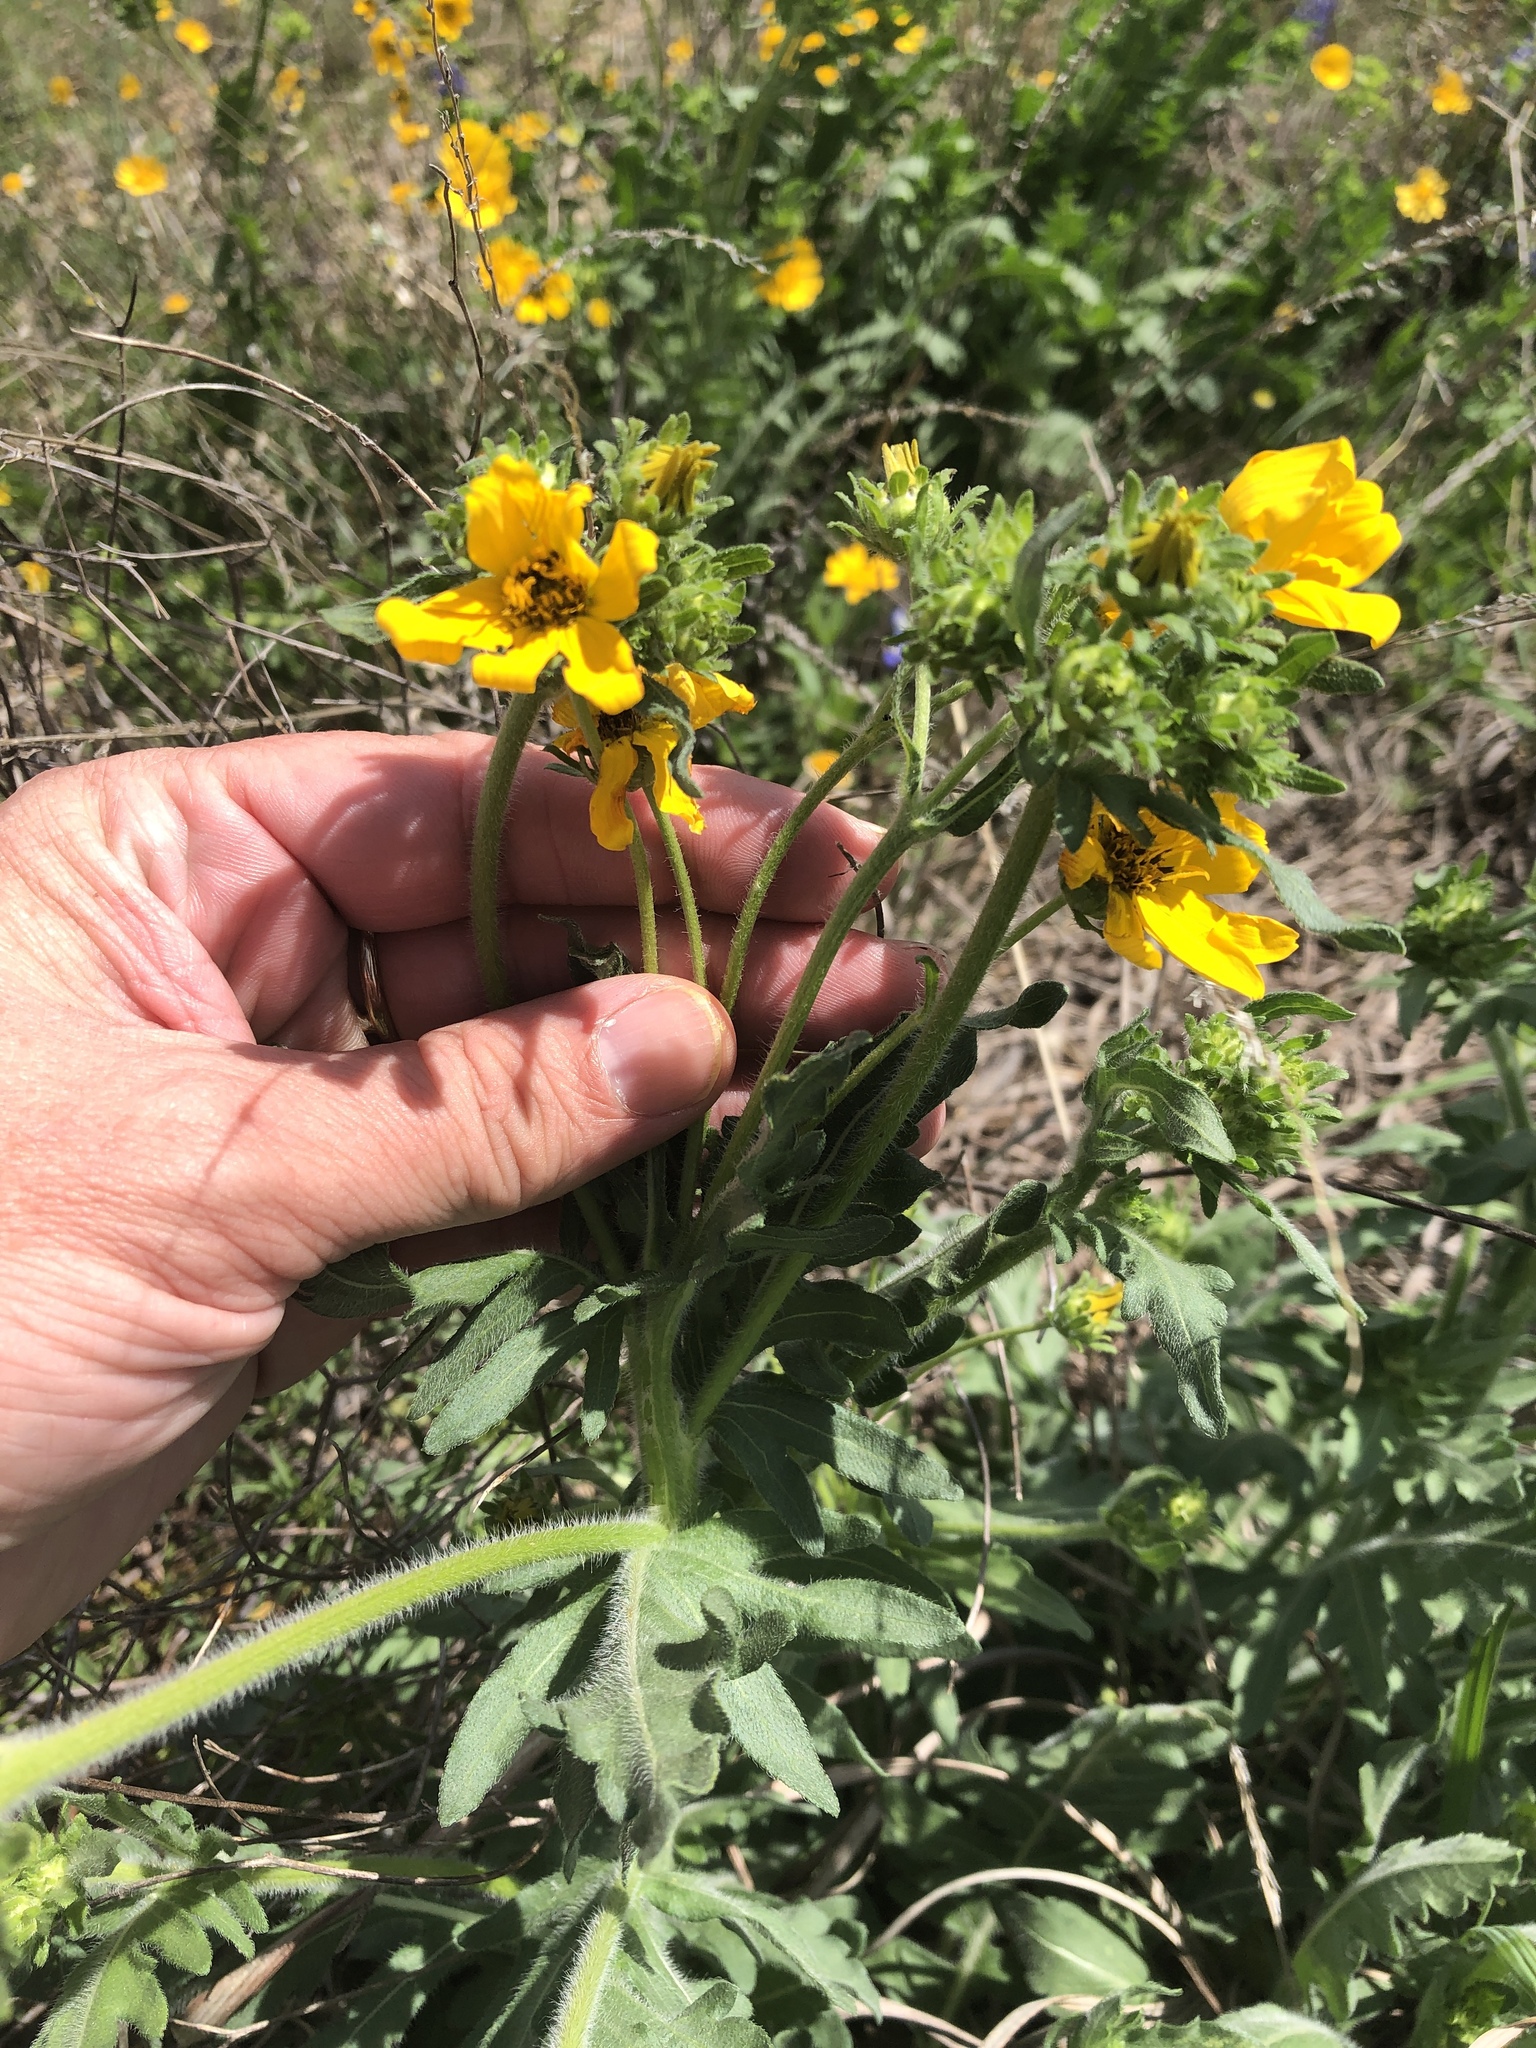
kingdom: Plantae
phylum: Tracheophyta
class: Magnoliopsida
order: Asterales
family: Asteraceae
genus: Engelmannia
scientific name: Engelmannia peristenia
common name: Engelmann's daisy
